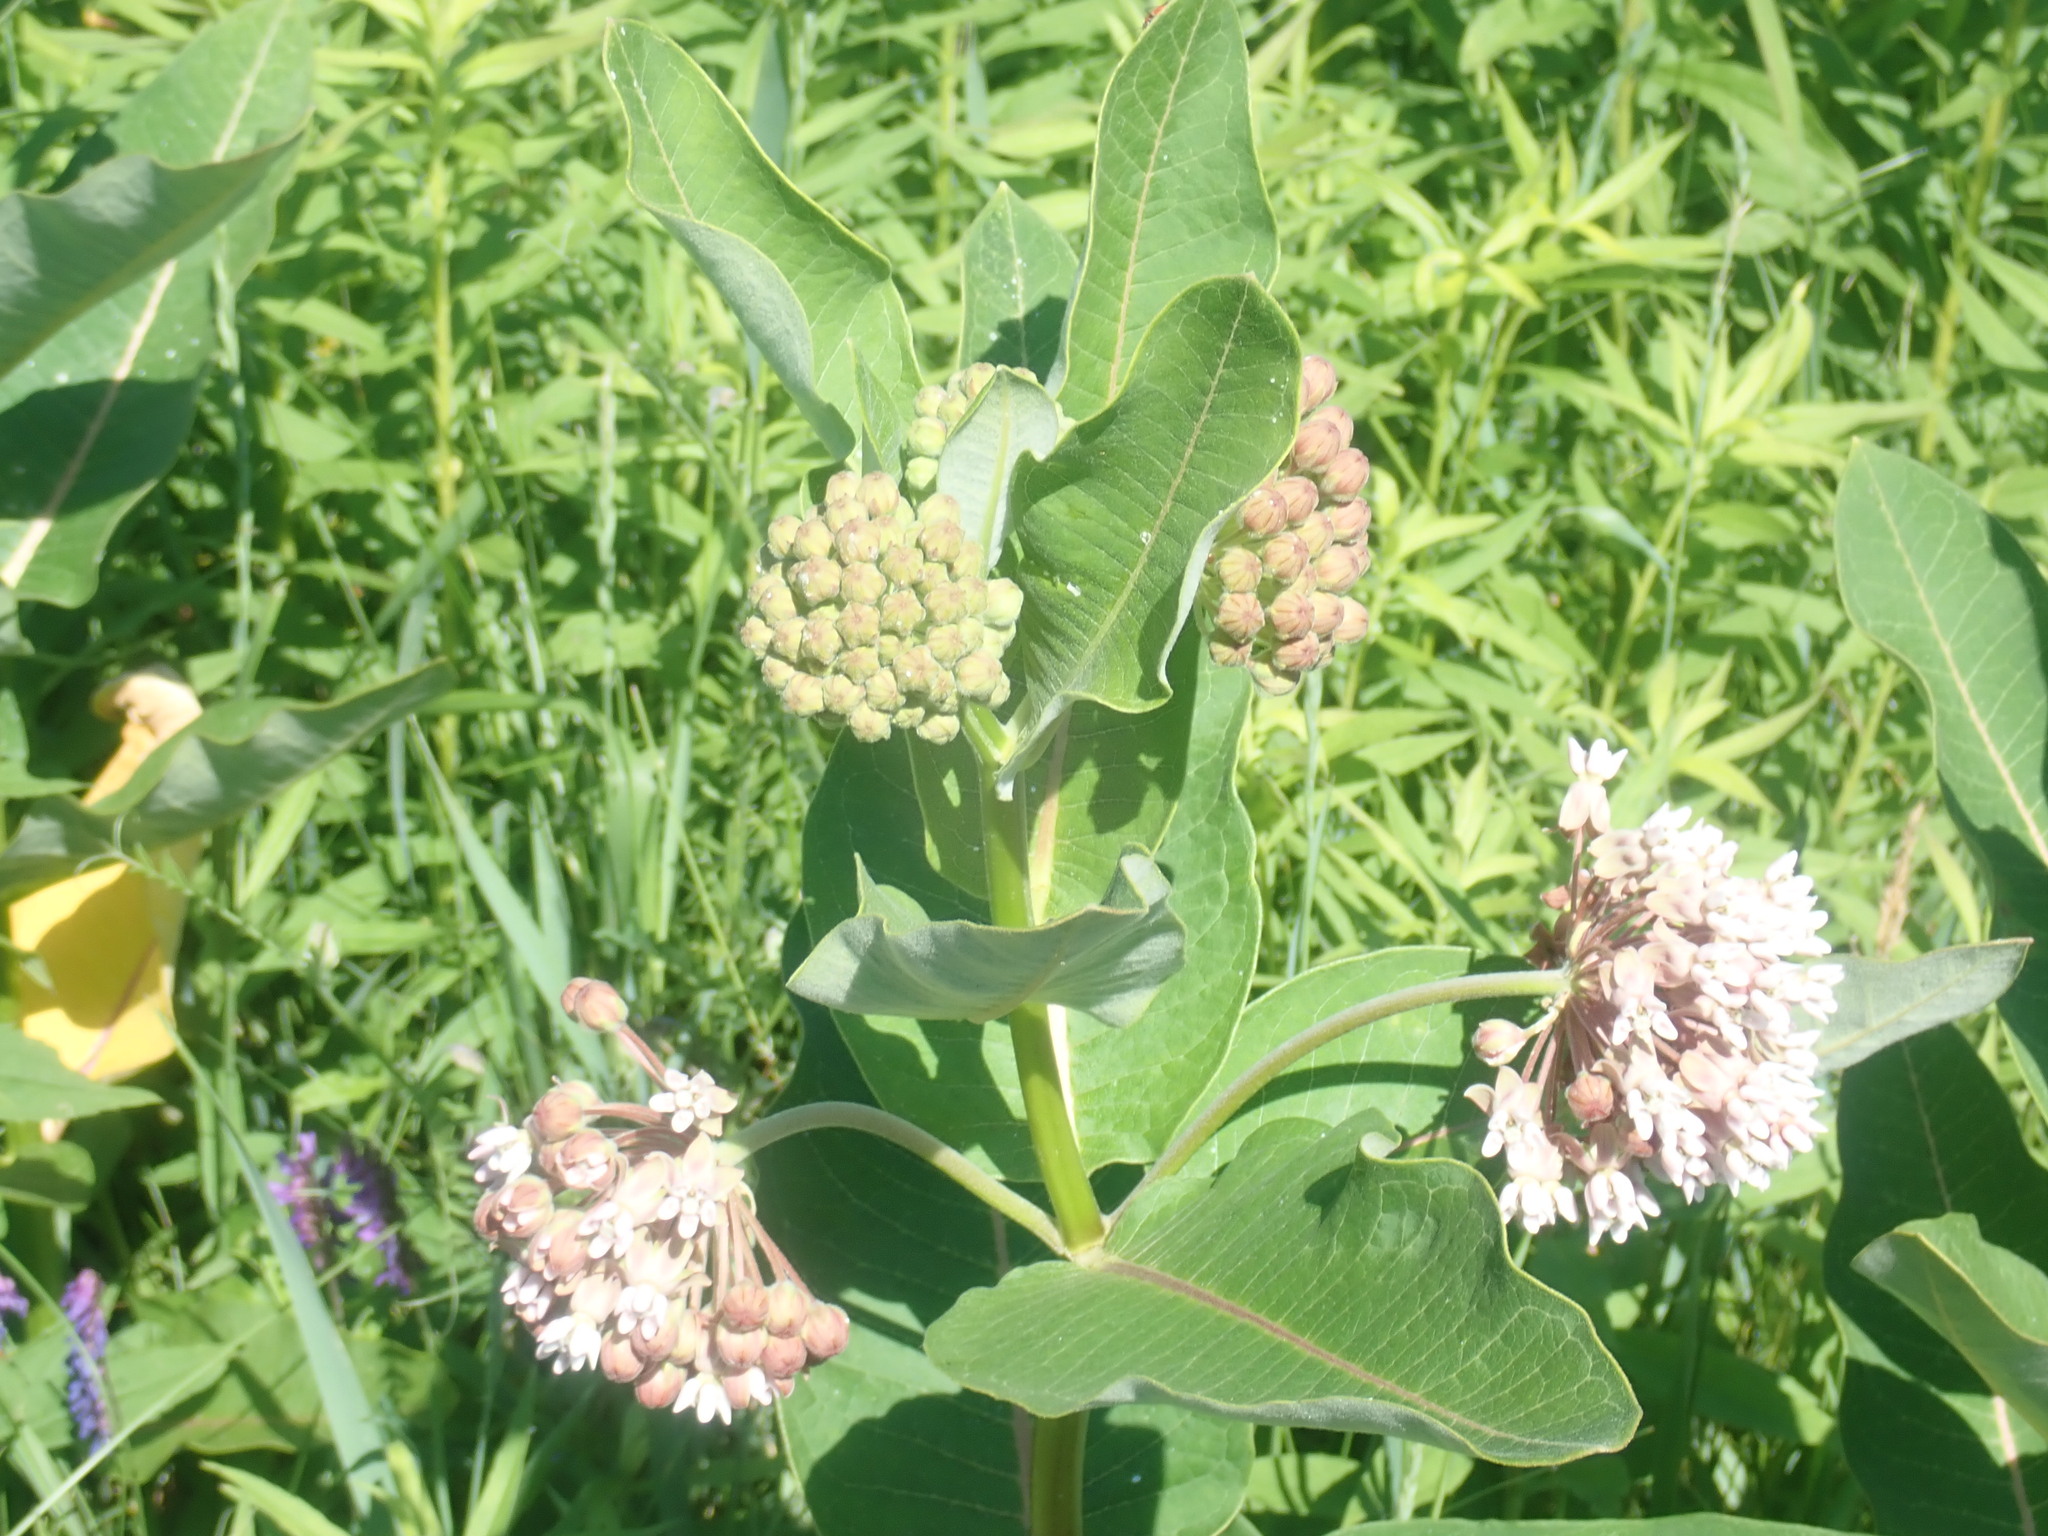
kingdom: Plantae
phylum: Tracheophyta
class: Magnoliopsida
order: Gentianales
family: Apocynaceae
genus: Asclepias
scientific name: Asclepias syriaca
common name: Common milkweed
